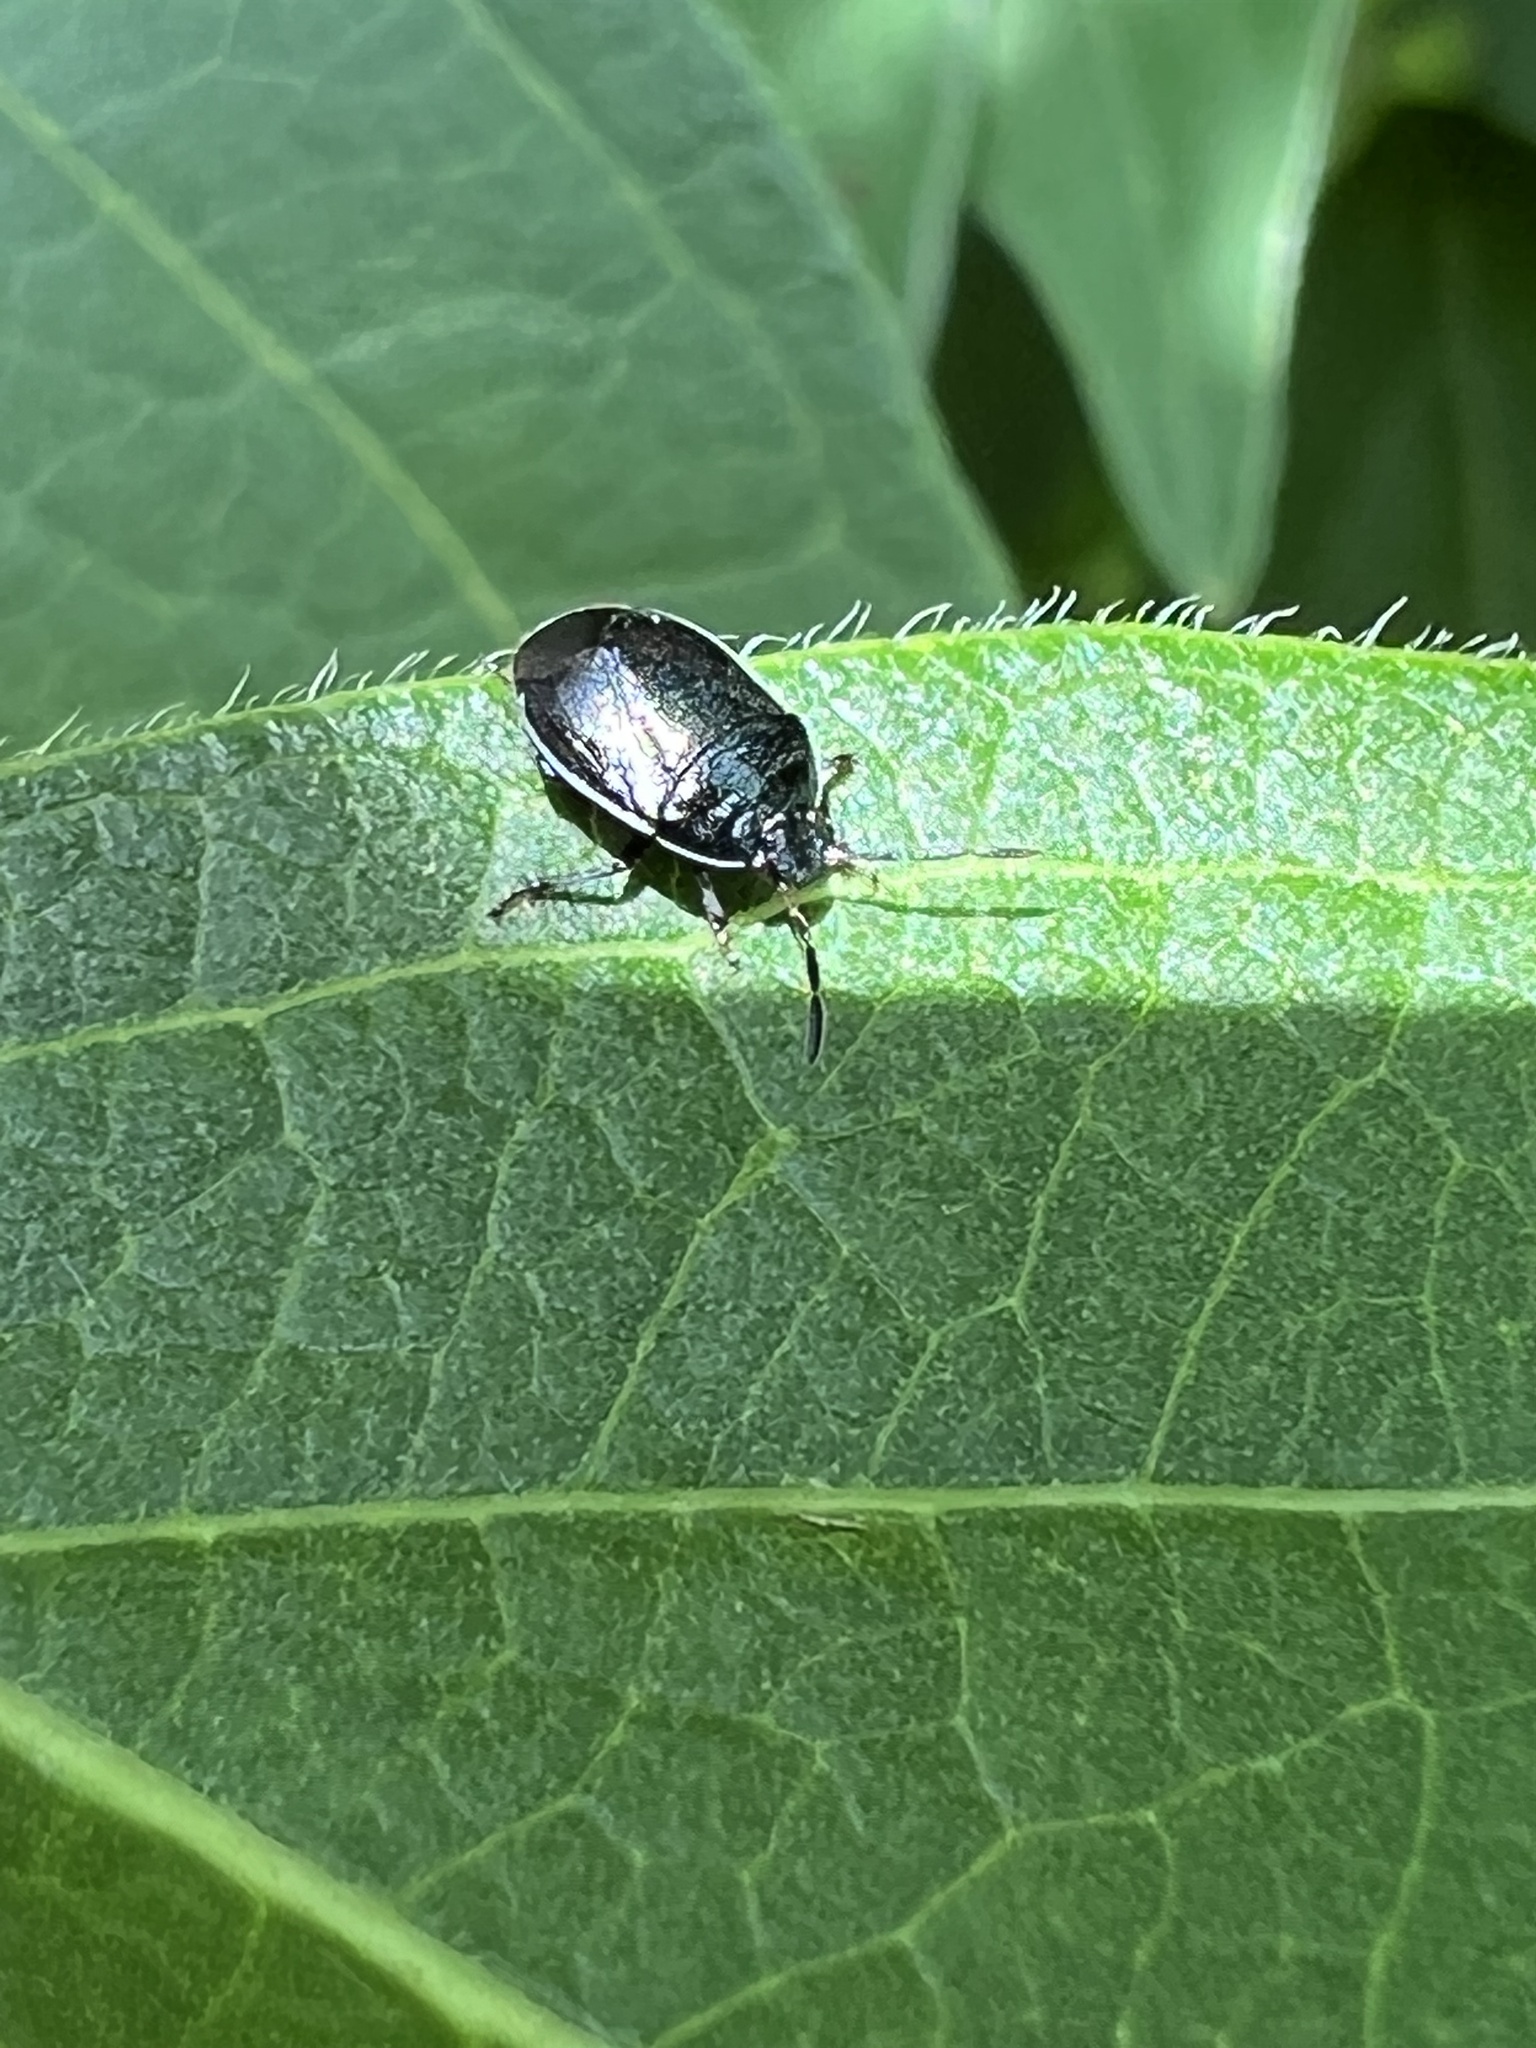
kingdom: Animalia
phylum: Arthropoda
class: Insecta
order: Hemiptera
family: Cydnidae
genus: Sehirus
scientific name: Sehirus cinctus
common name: White-margined burrower bug
